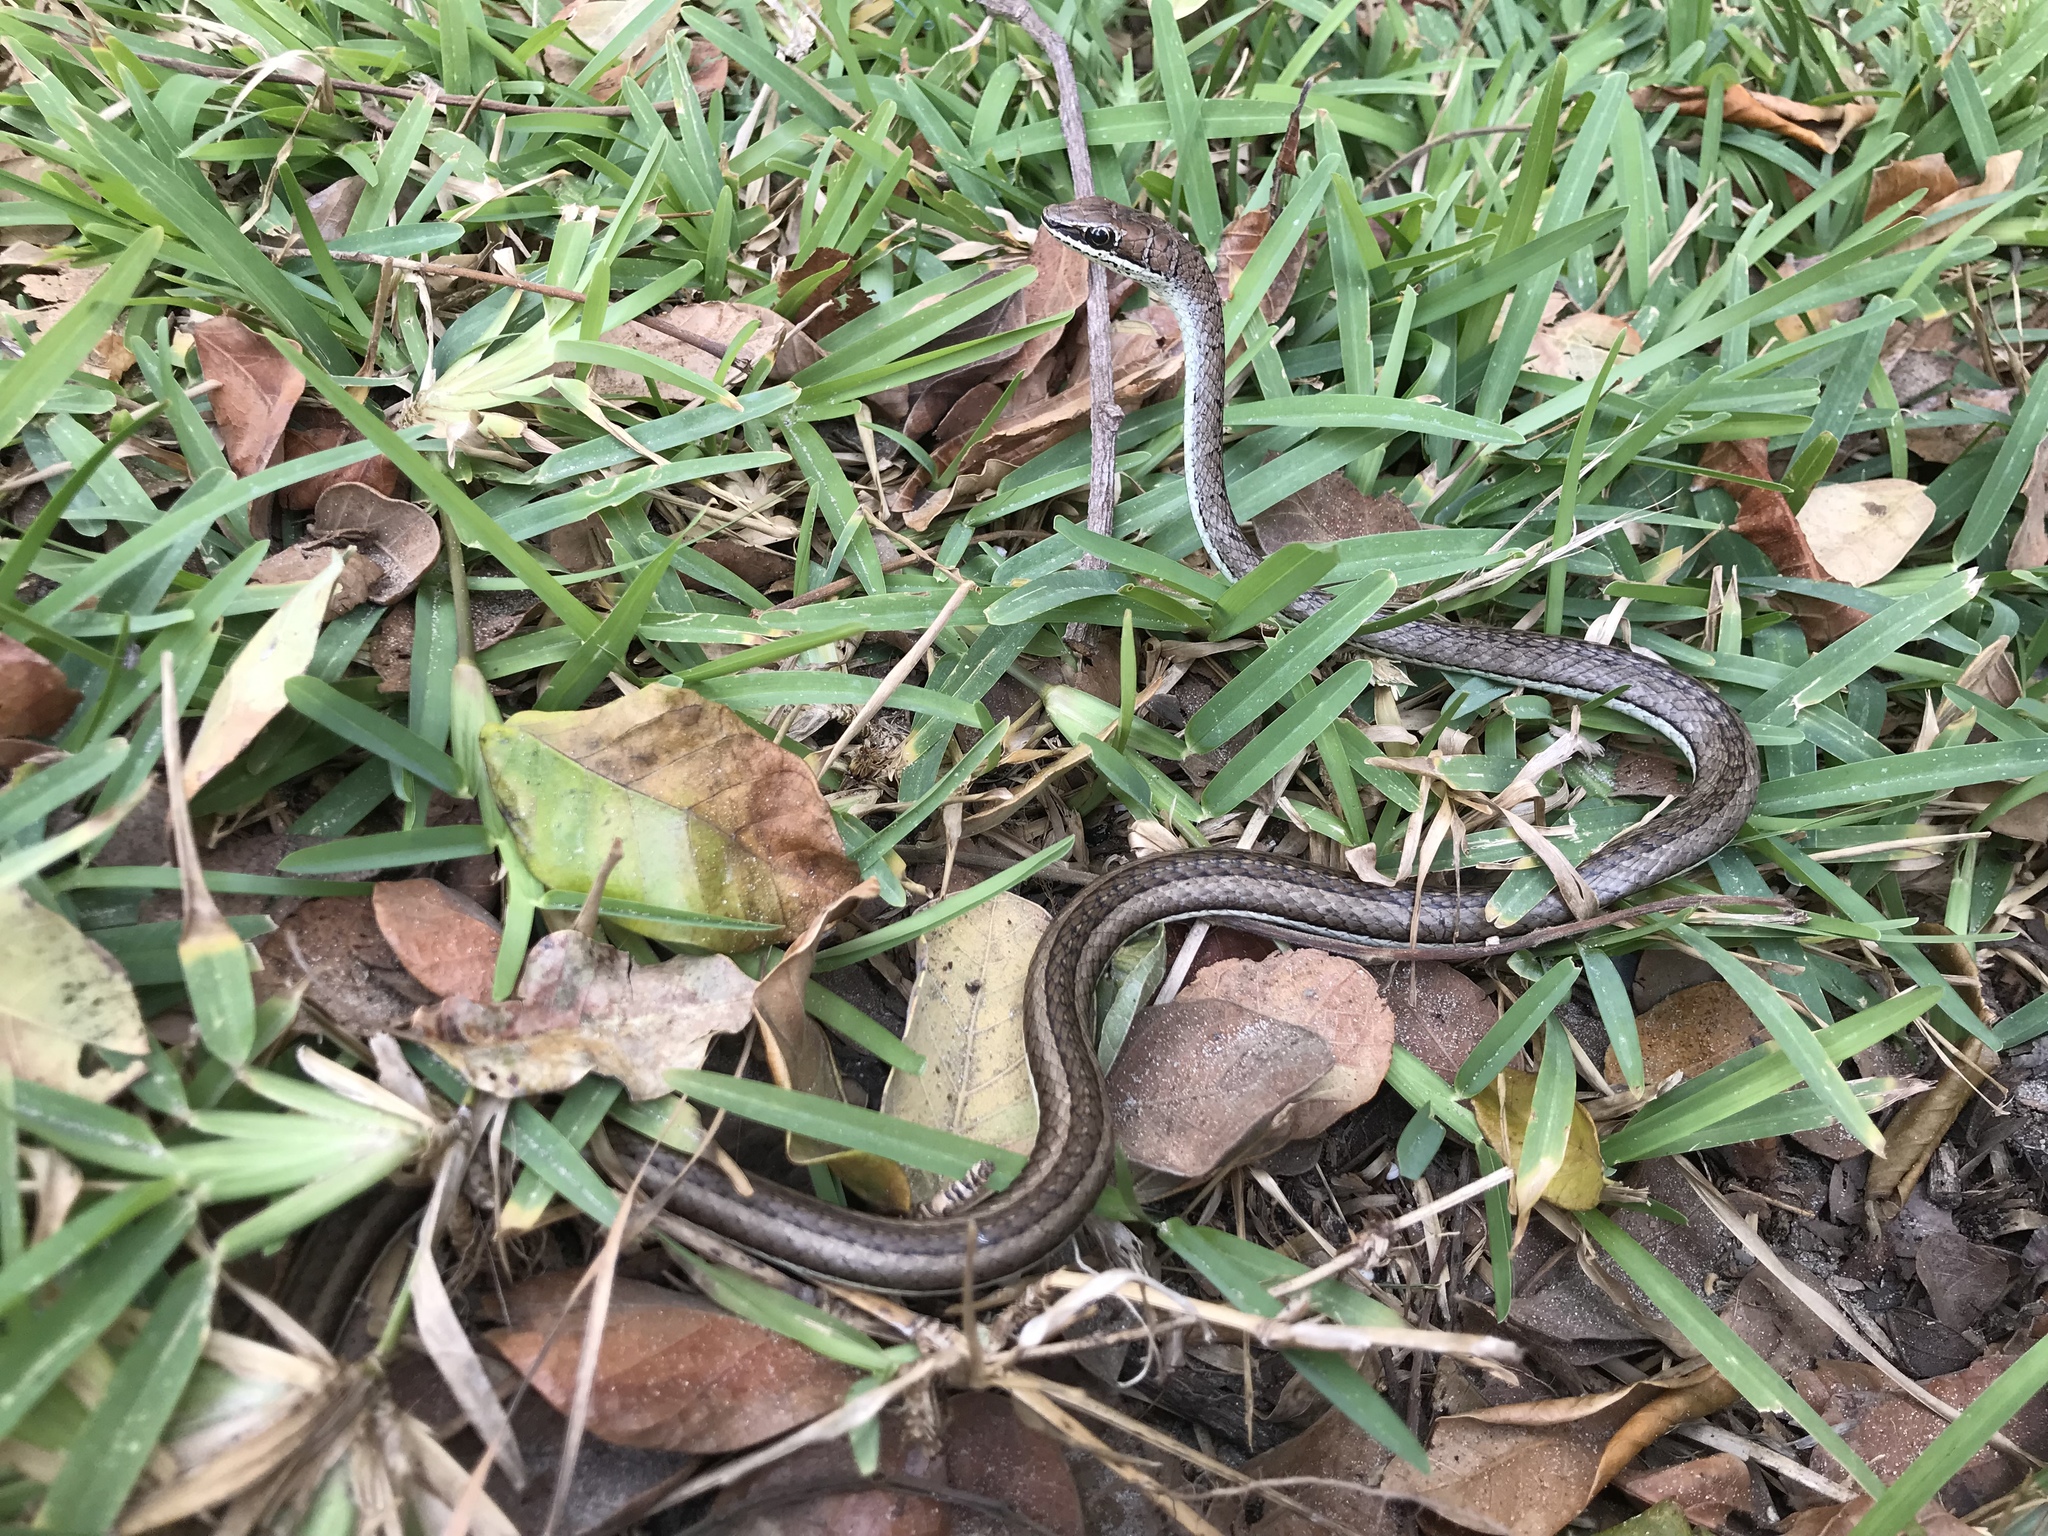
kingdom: Animalia
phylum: Chordata
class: Squamata
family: Psammophiidae
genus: Psammophis
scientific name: Psammophis orientalis
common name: Eastern stripe-bellied sand snake
